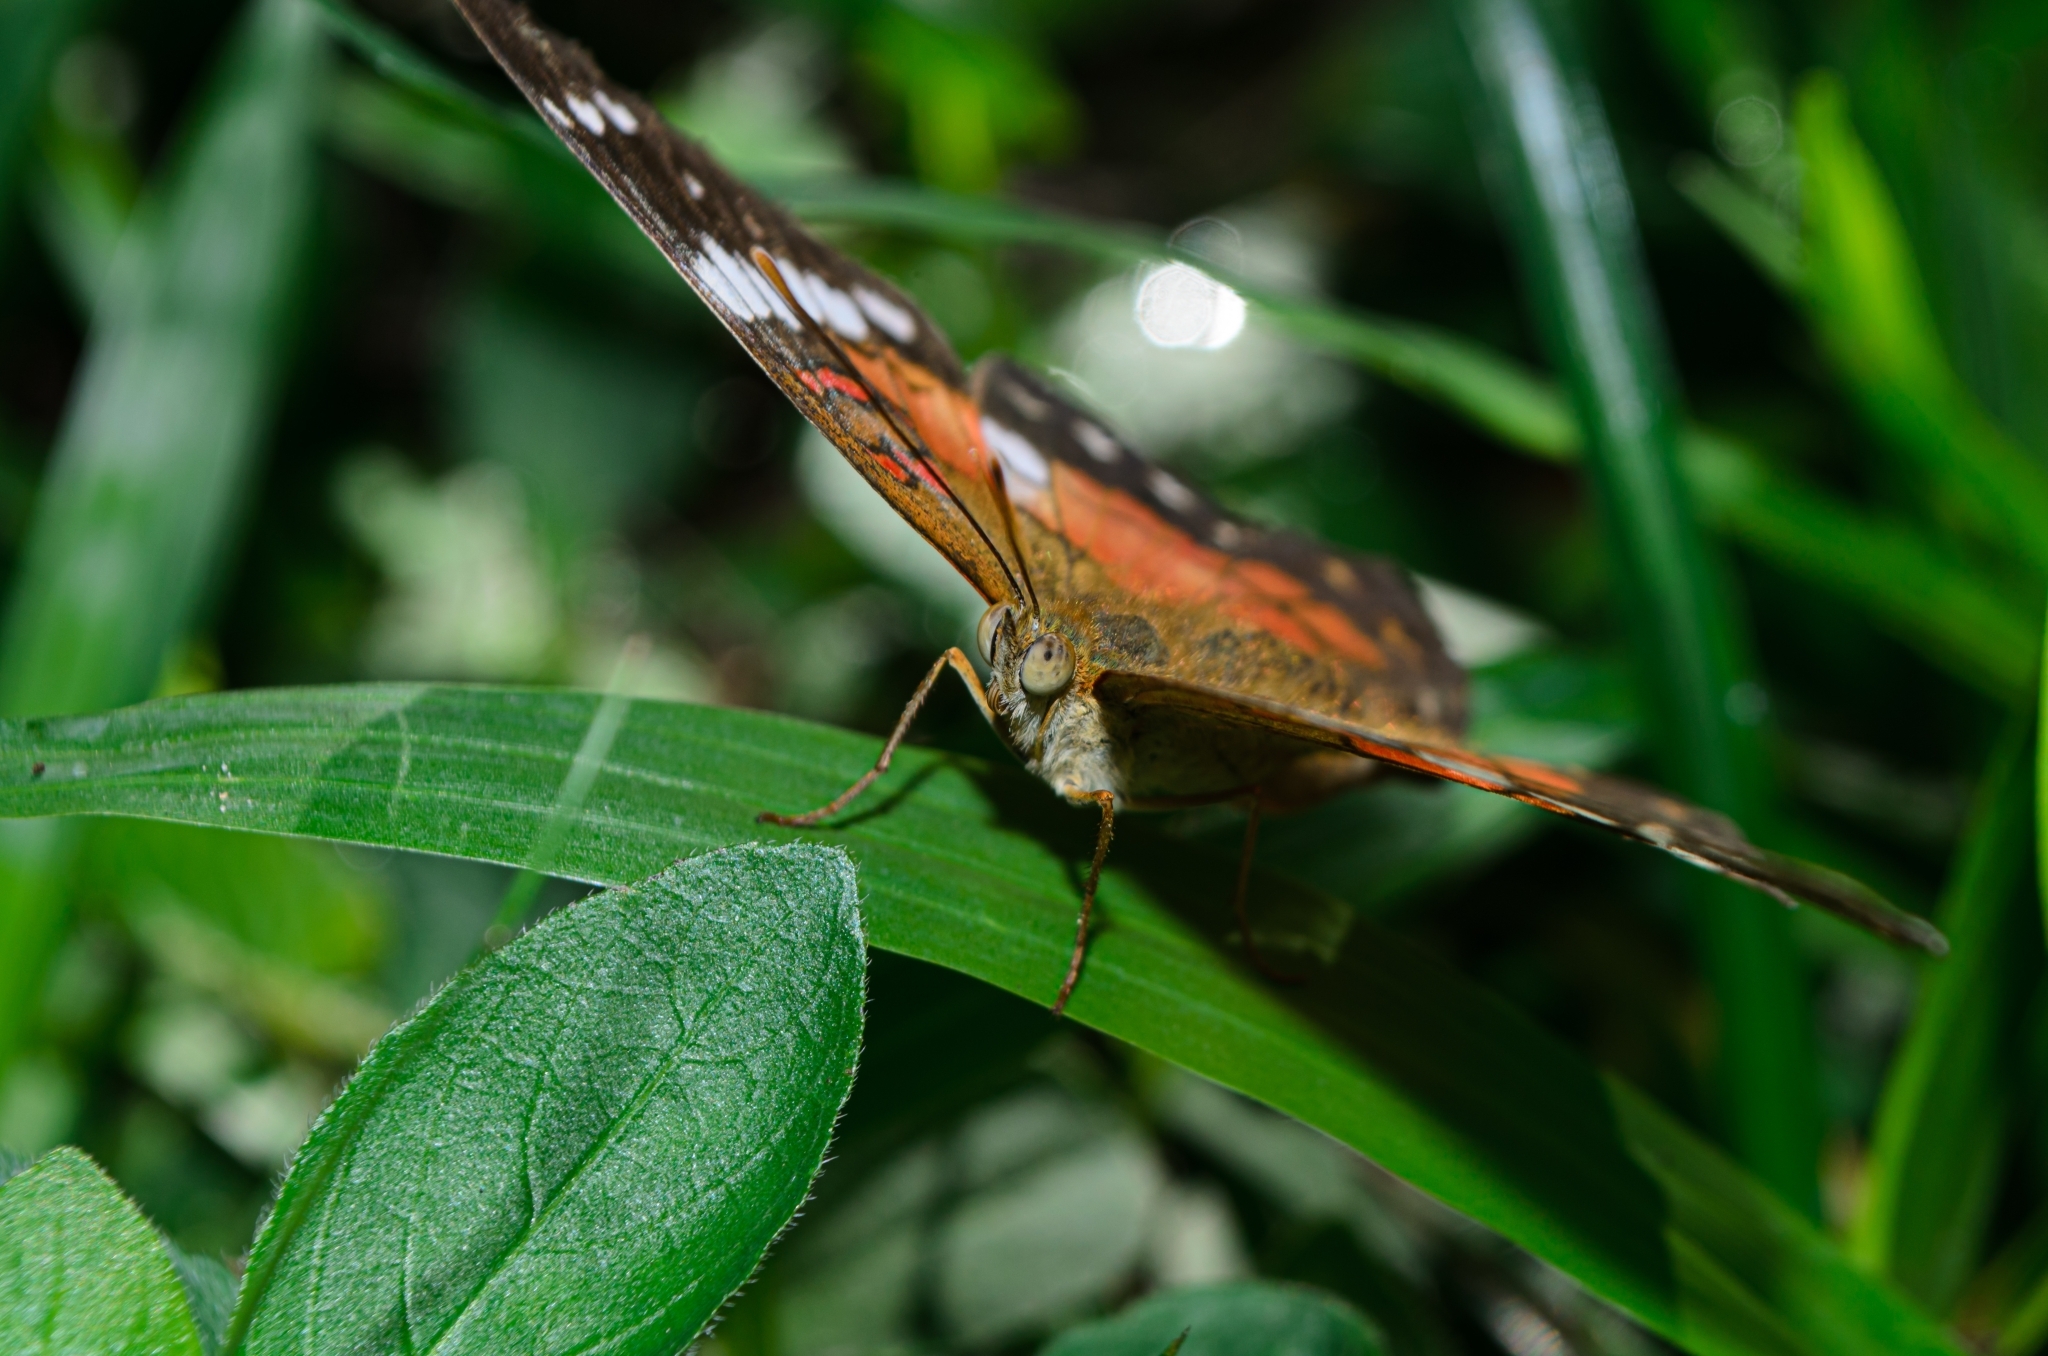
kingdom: Animalia
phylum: Arthropoda
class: Insecta
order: Lepidoptera
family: Nymphalidae
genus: Anartia
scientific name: Anartia amathea
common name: Red peacock
